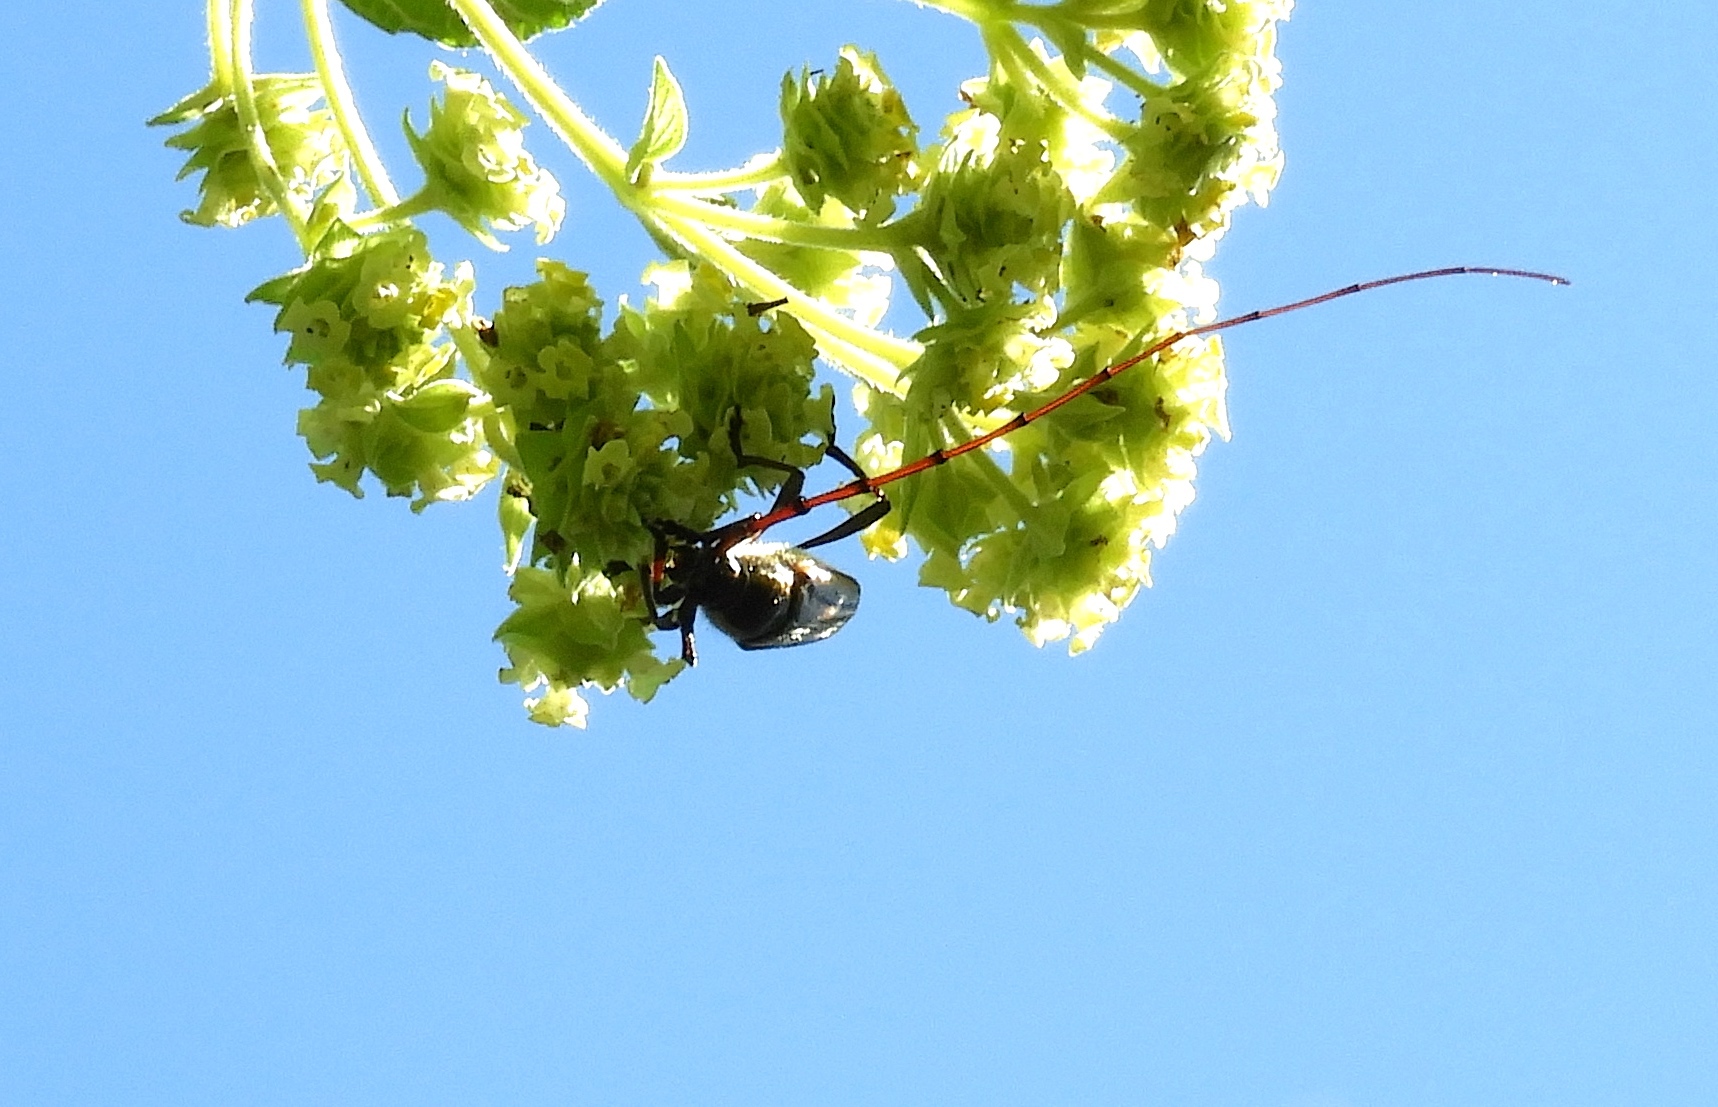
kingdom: Animalia
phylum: Arthropoda
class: Insecta
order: Coleoptera
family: Cerambycidae
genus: Sphaenothecus
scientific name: Sphaenothecus maccartyi
